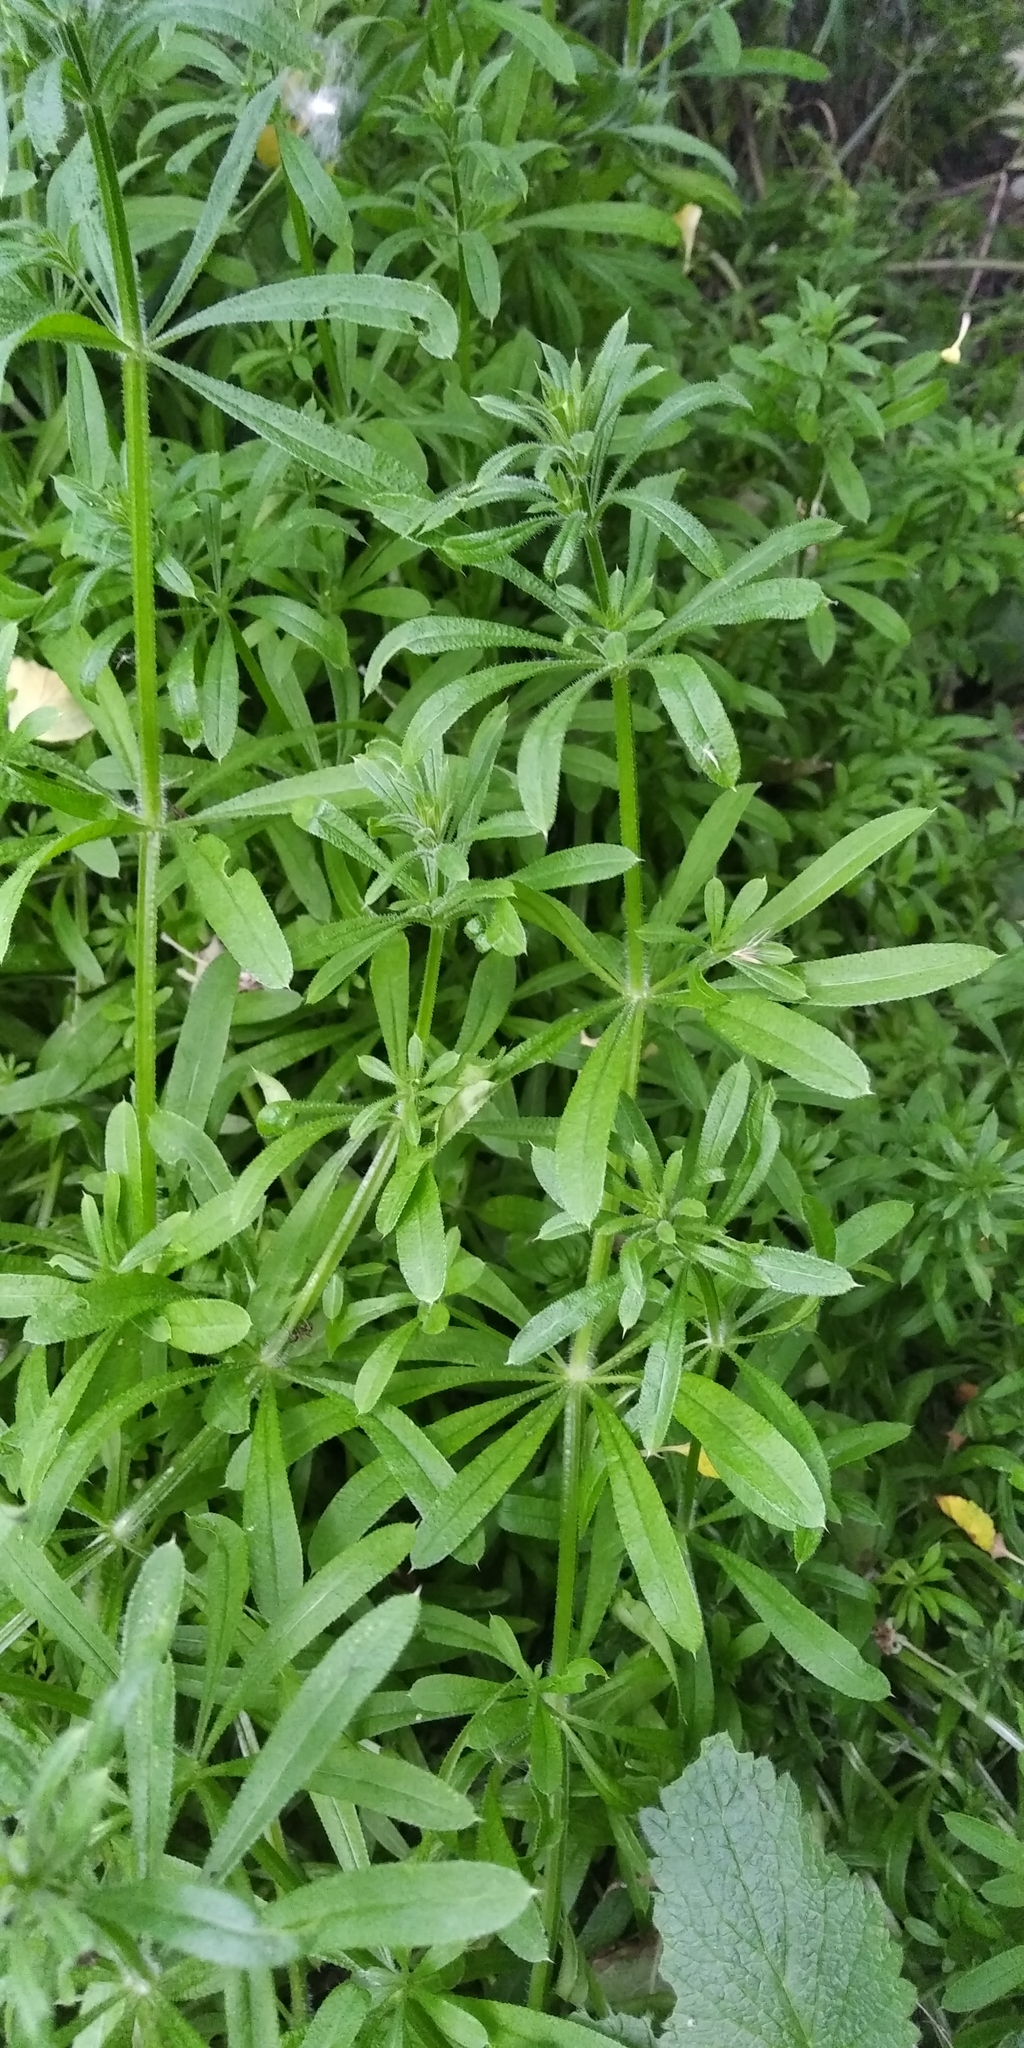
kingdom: Plantae
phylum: Tracheophyta
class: Magnoliopsida
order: Gentianales
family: Rubiaceae
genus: Galium
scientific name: Galium aparine
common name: Cleavers
